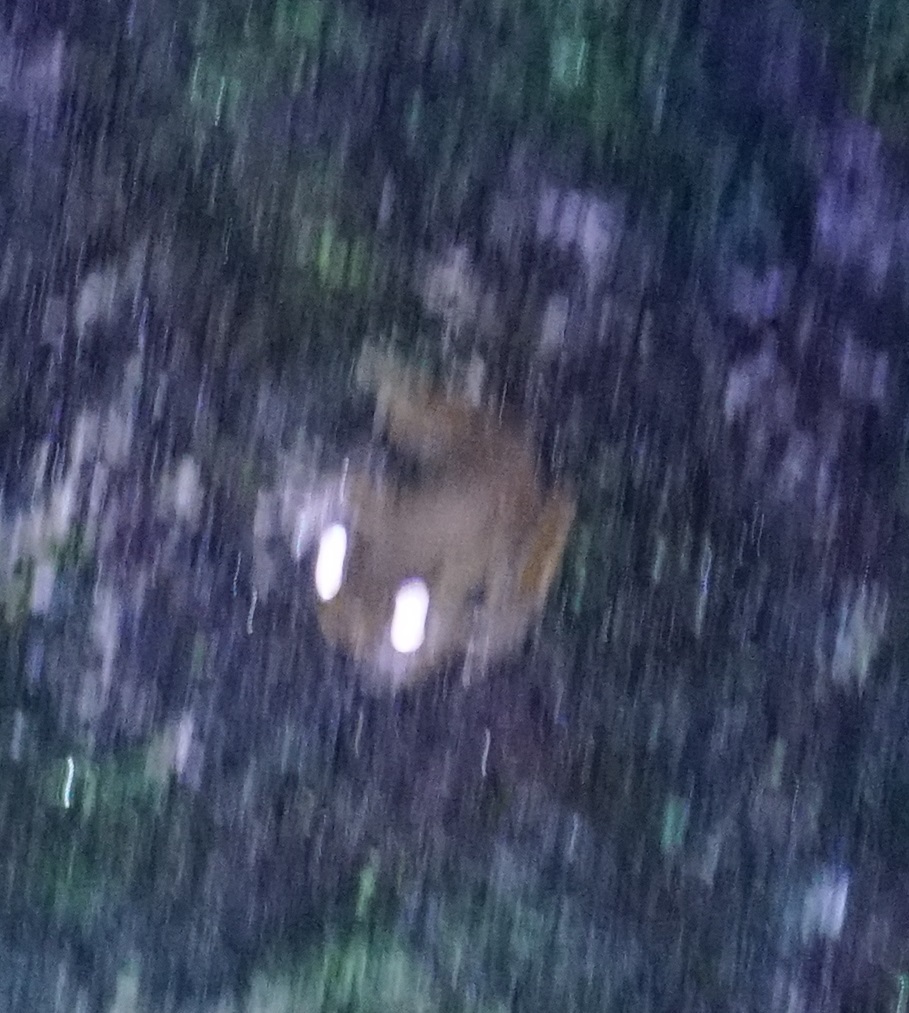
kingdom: Animalia
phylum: Chordata
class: Amphibia
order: Anura
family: Pelodryadidae
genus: Ranoidea
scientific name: Ranoidea dayi
